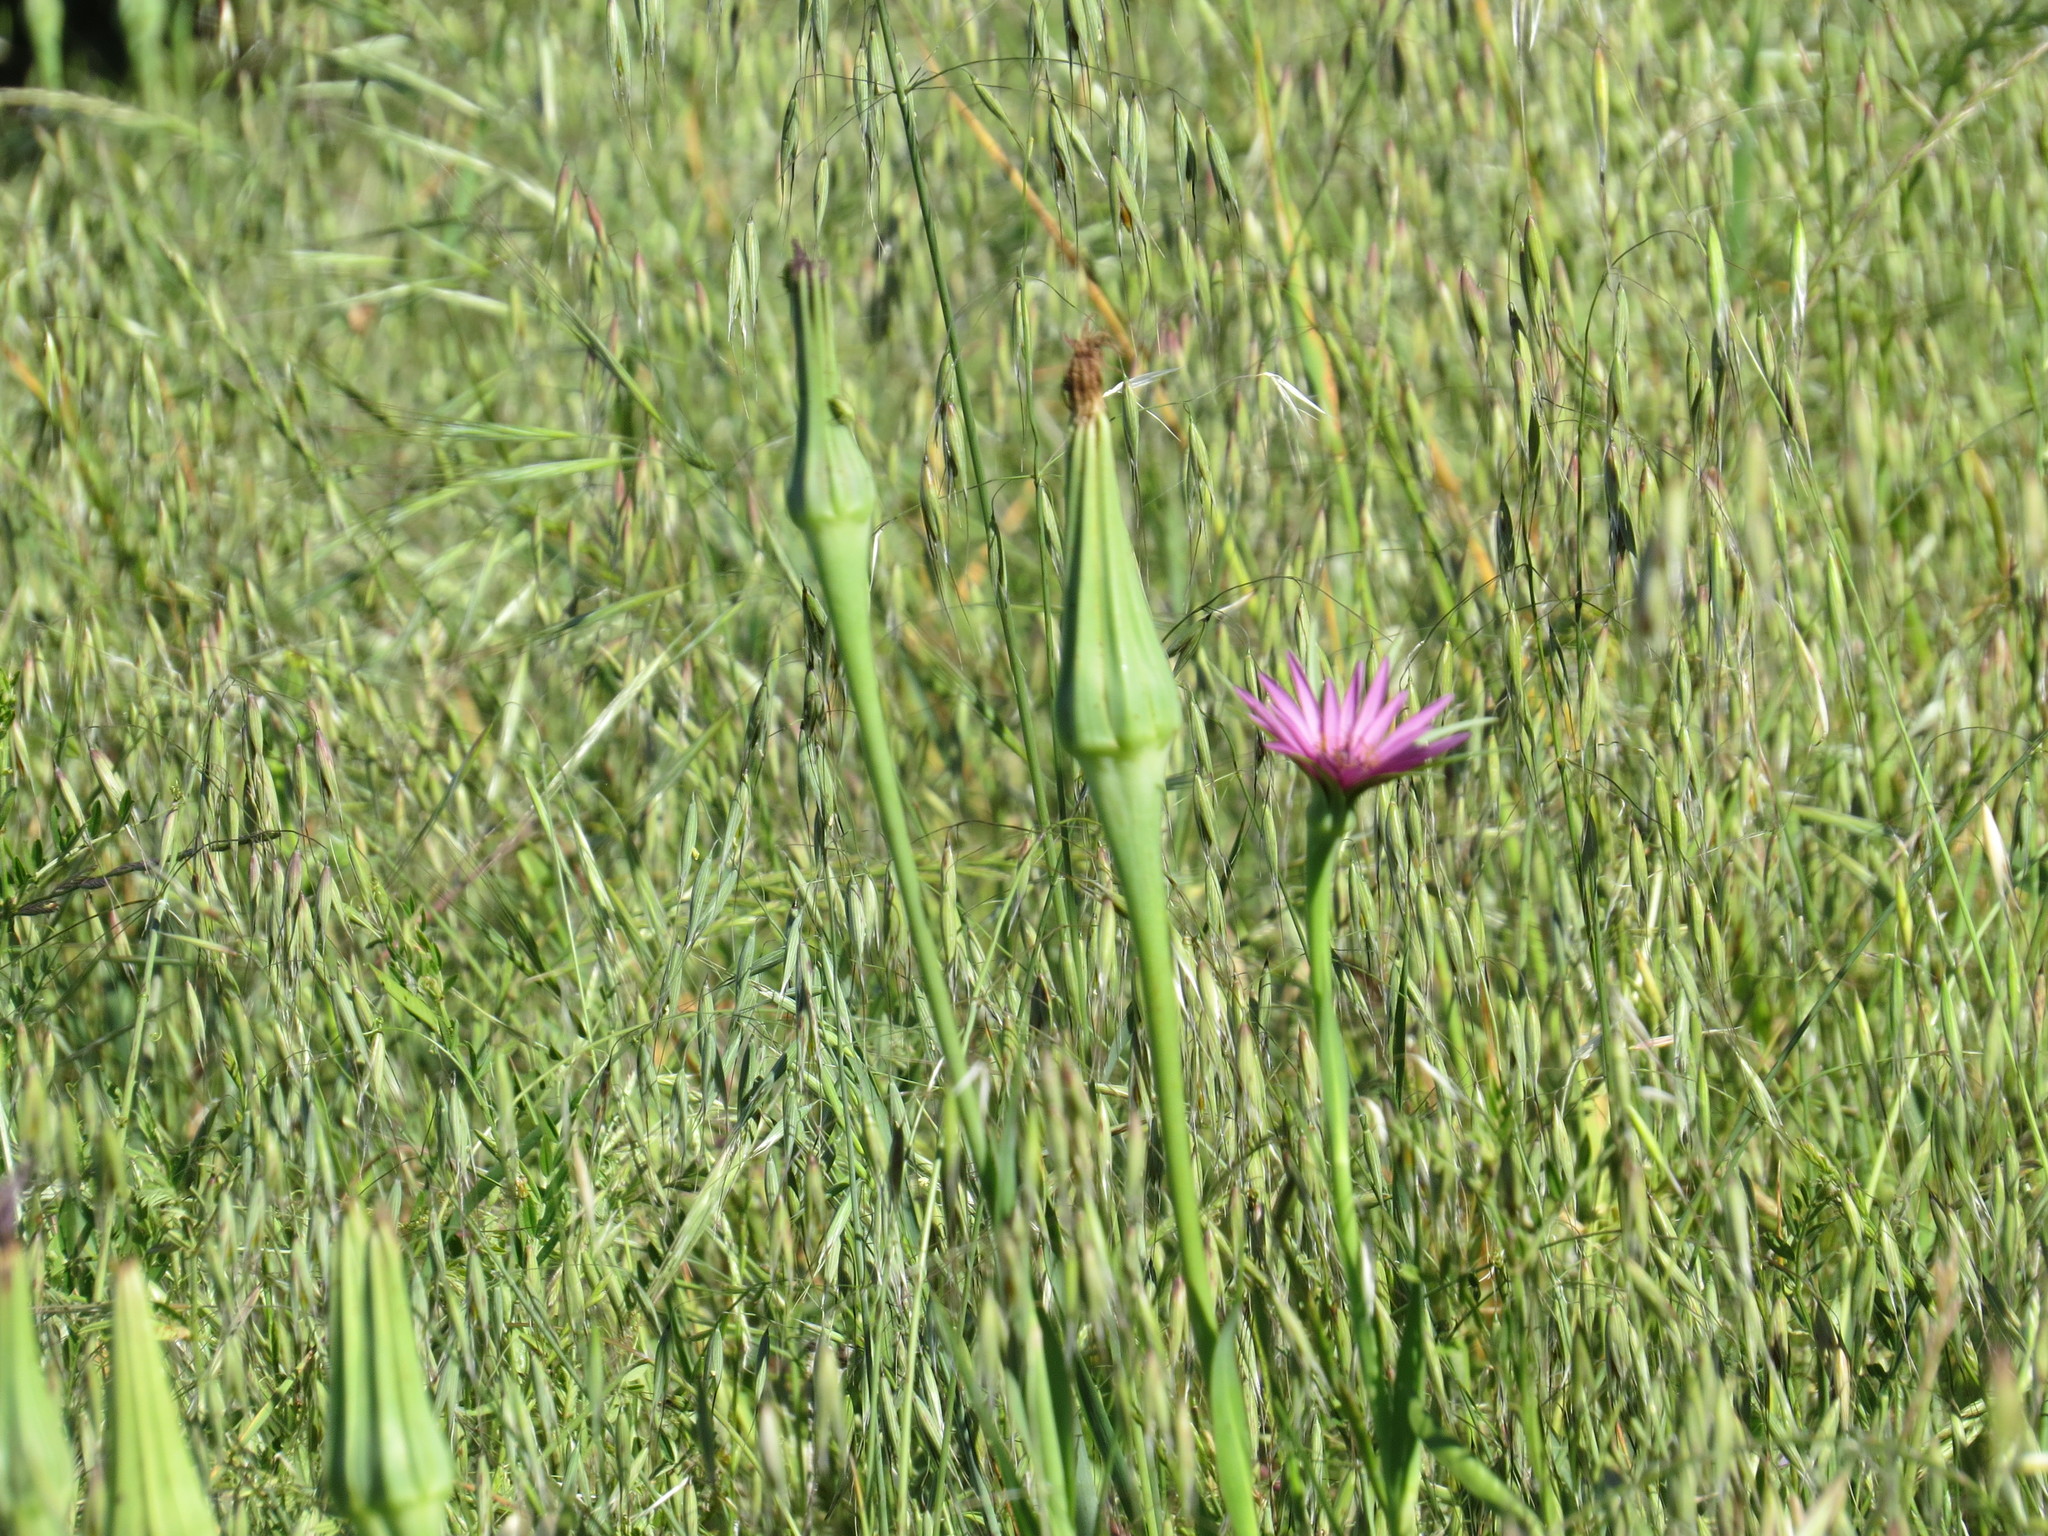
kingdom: Plantae
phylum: Tracheophyta
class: Magnoliopsida
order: Asterales
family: Asteraceae
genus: Tragopogon
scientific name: Tragopogon porrifolius
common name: Salsify
